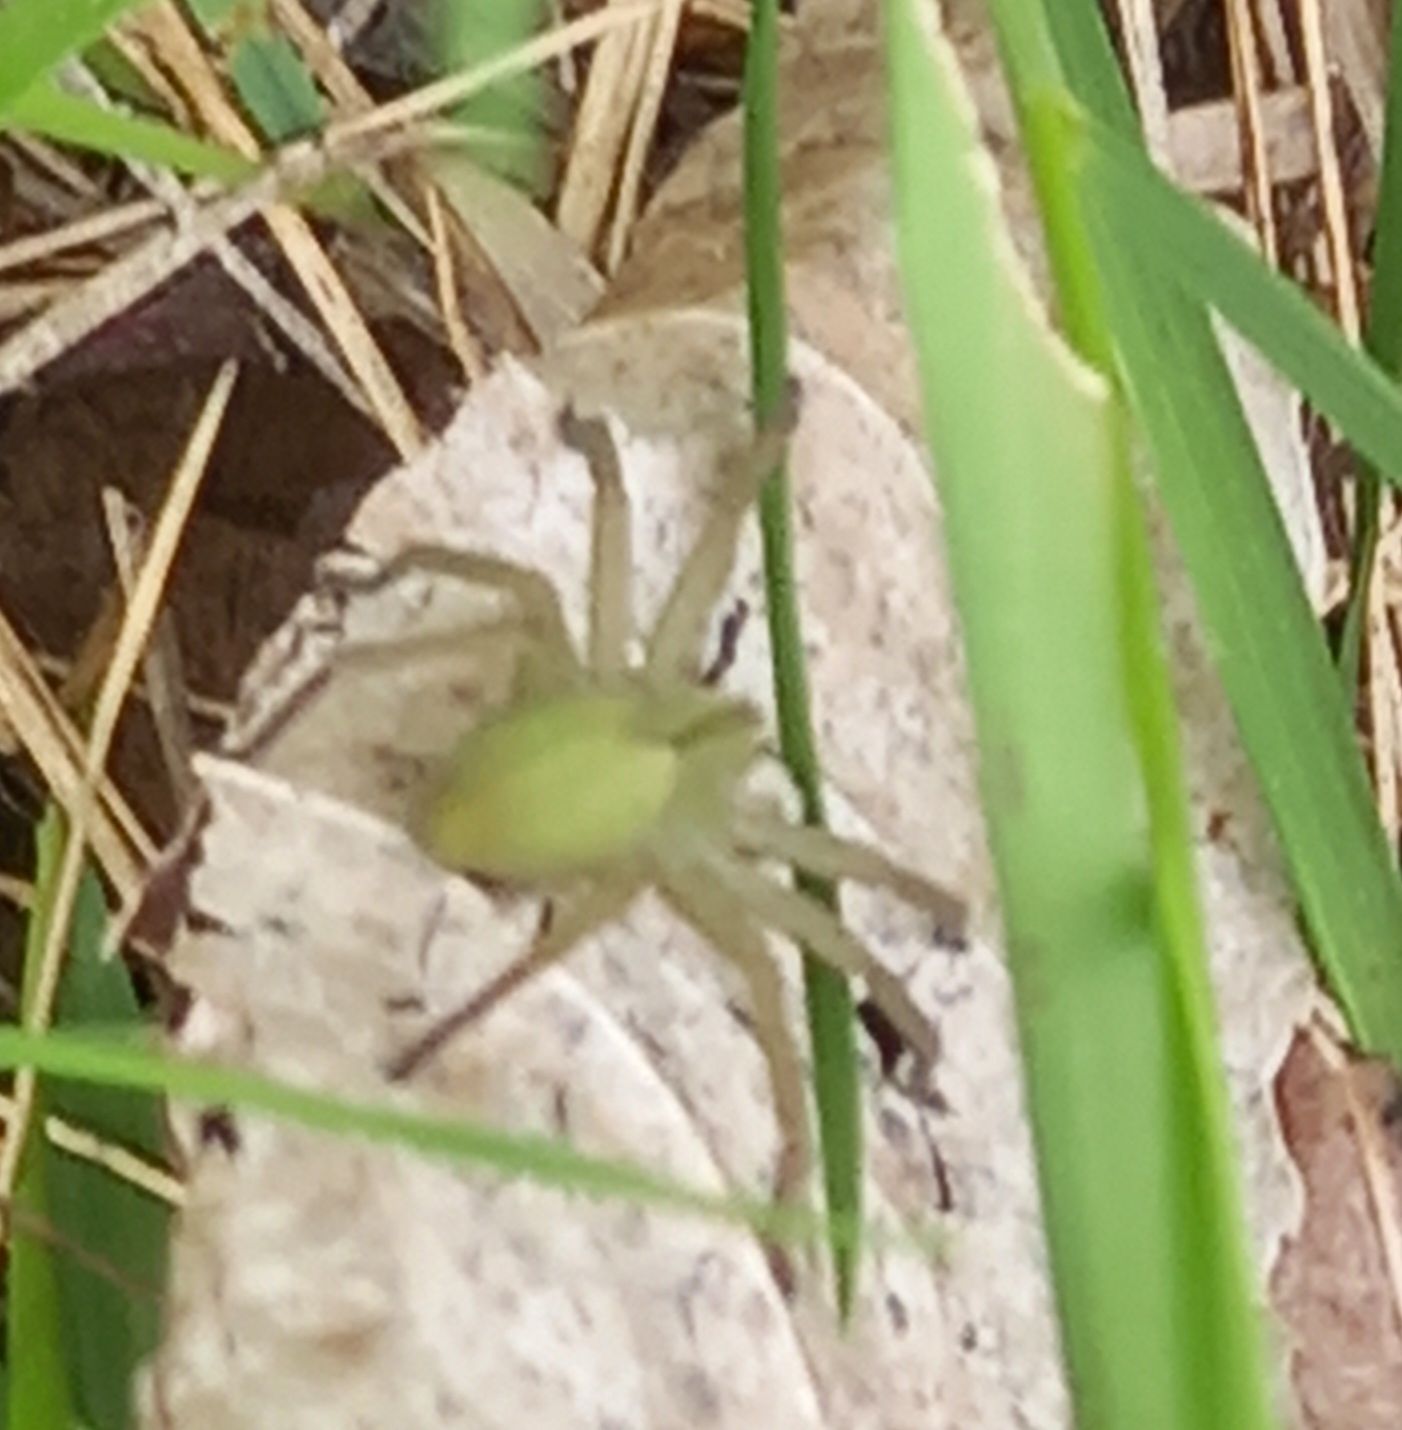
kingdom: Animalia
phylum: Arthropoda
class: Arachnida
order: Araneae
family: Sparassidae
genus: Micrommata
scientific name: Micrommata ligurina
